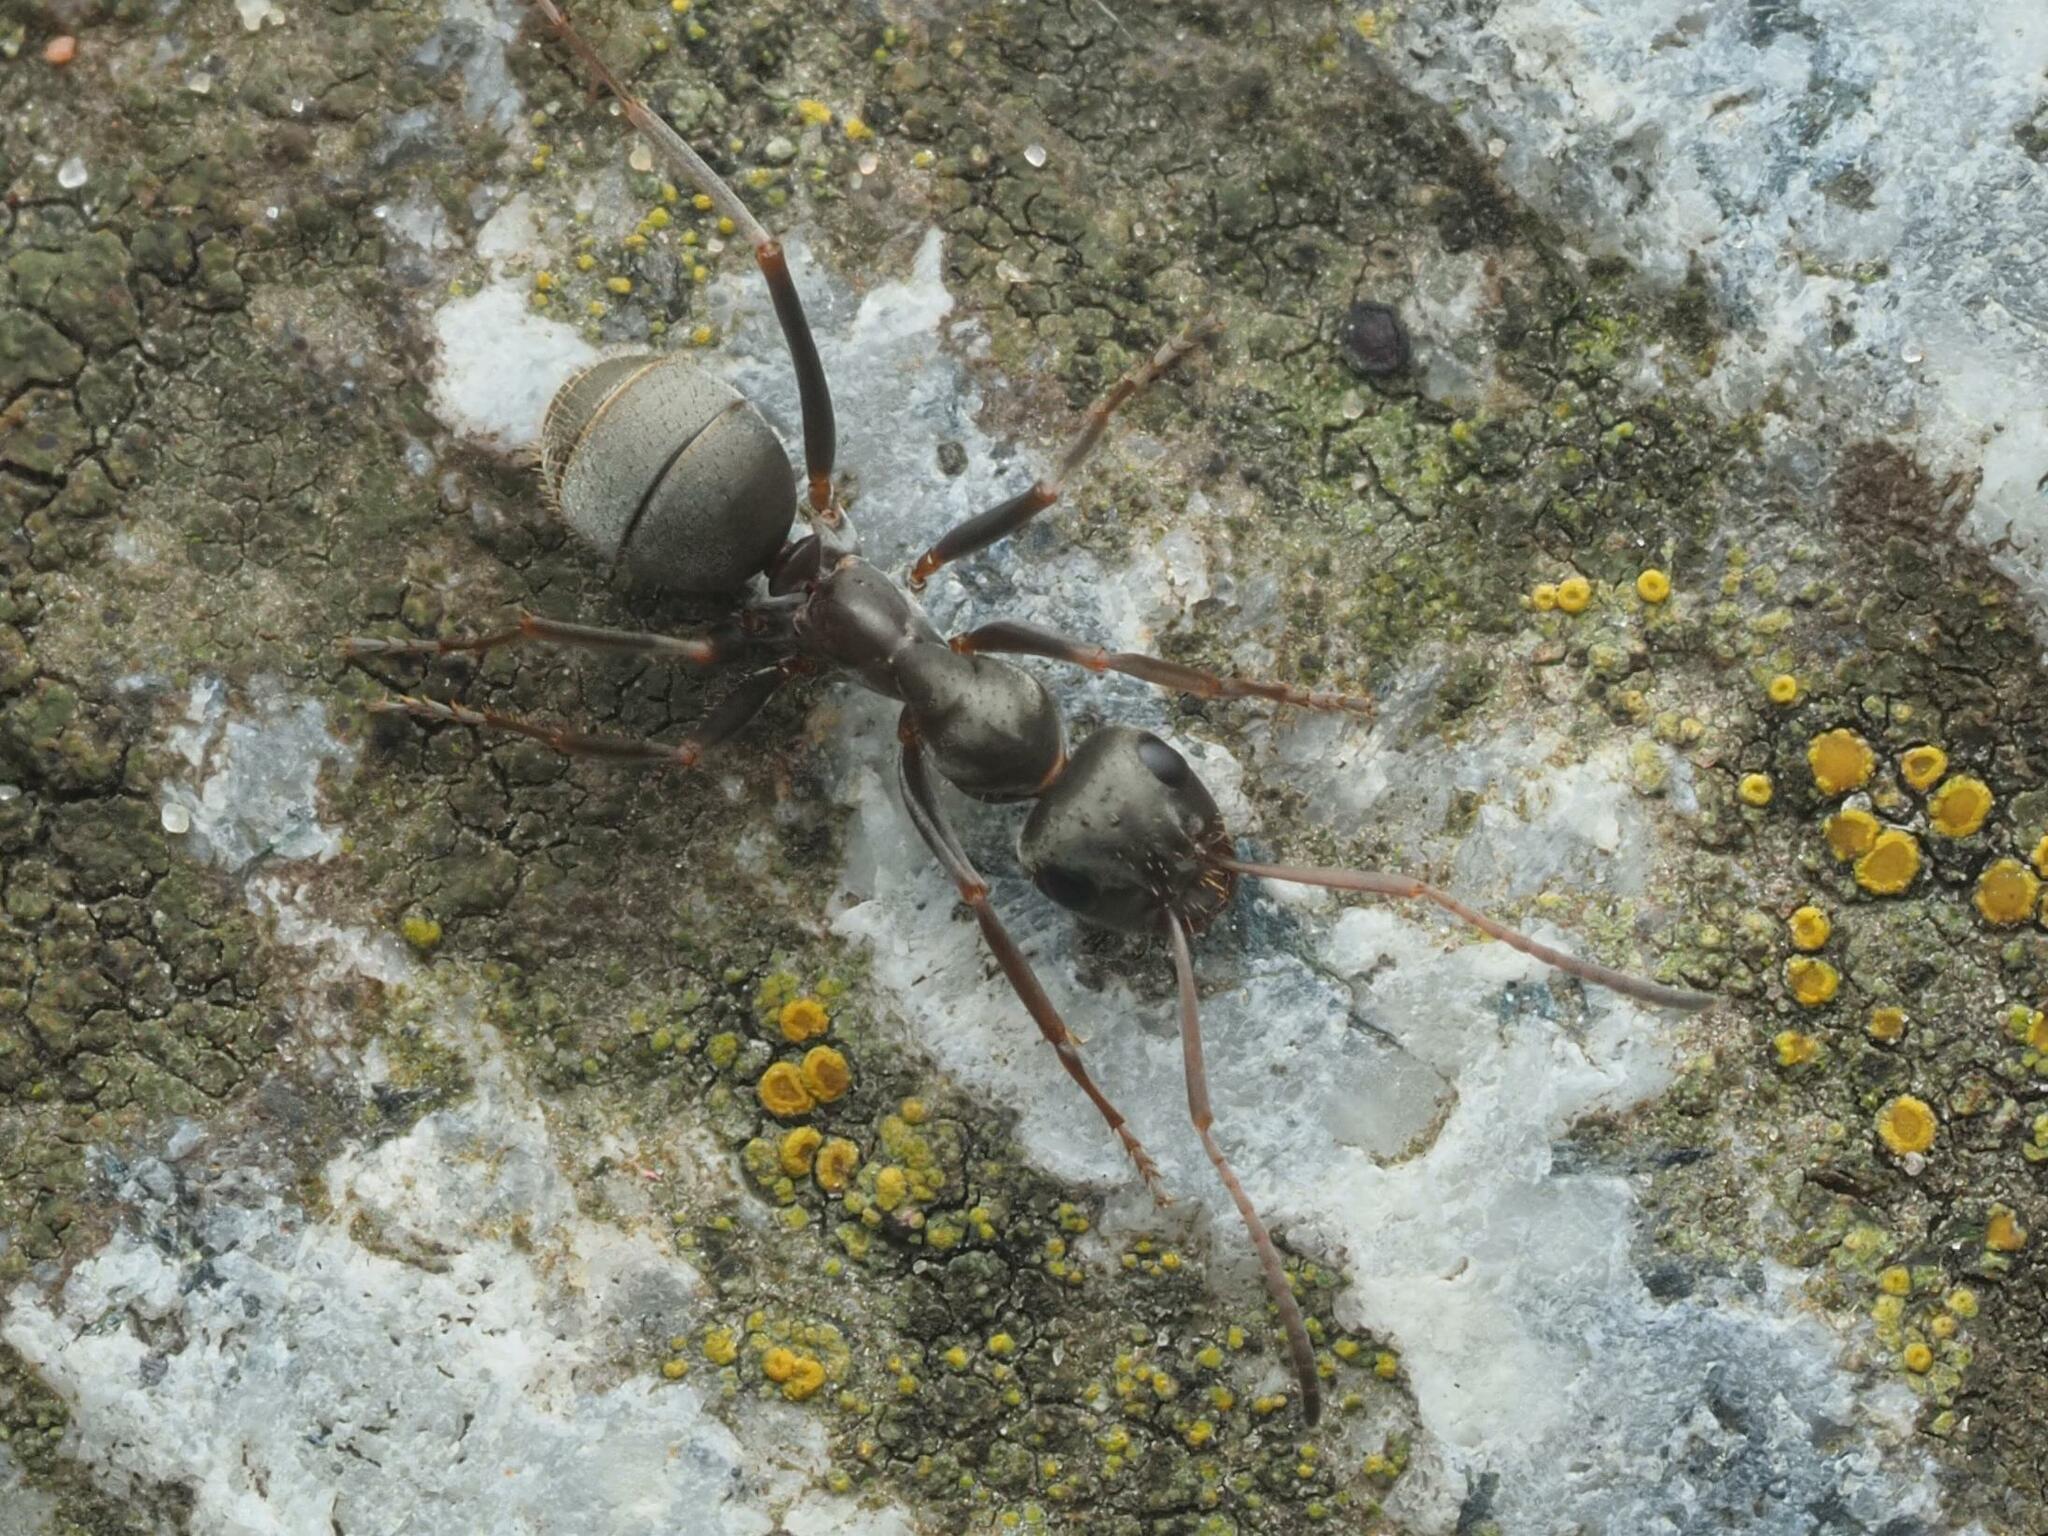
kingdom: Animalia
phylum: Arthropoda
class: Insecta
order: Hymenoptera
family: Formicidae
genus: Formica
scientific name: Formica cinerea
